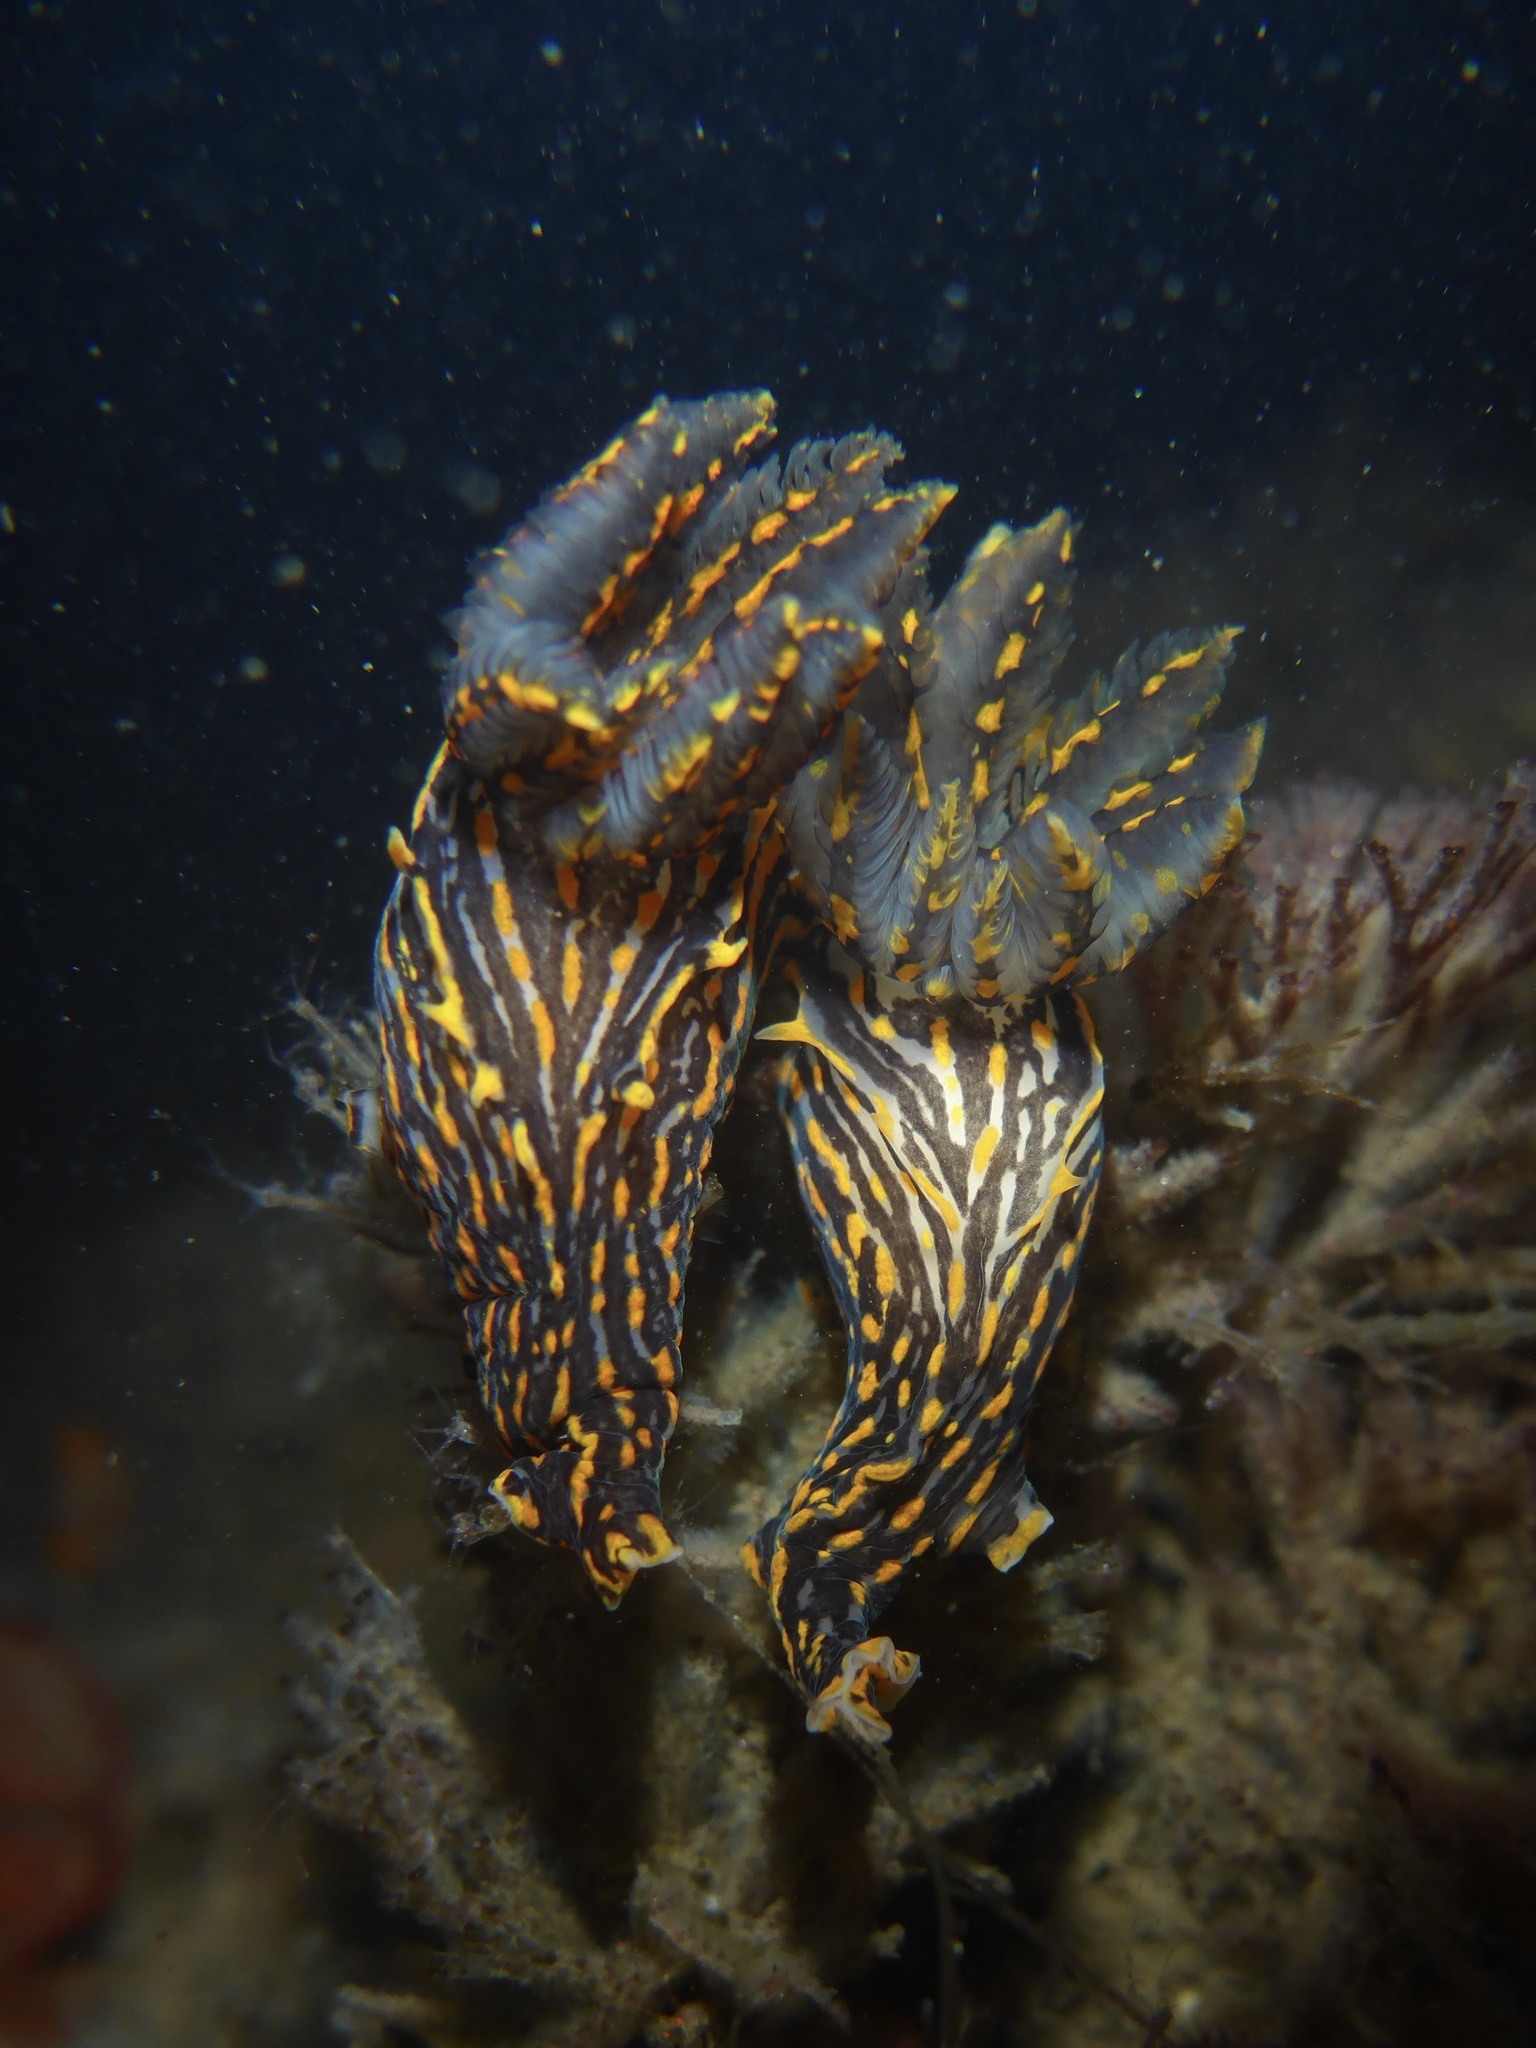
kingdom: Animalia
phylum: Mollusca
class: Gastropoda
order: Nudibranchia
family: Polyceridae
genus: Polycera
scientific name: Polycera atra
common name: Orange-spike polycera
